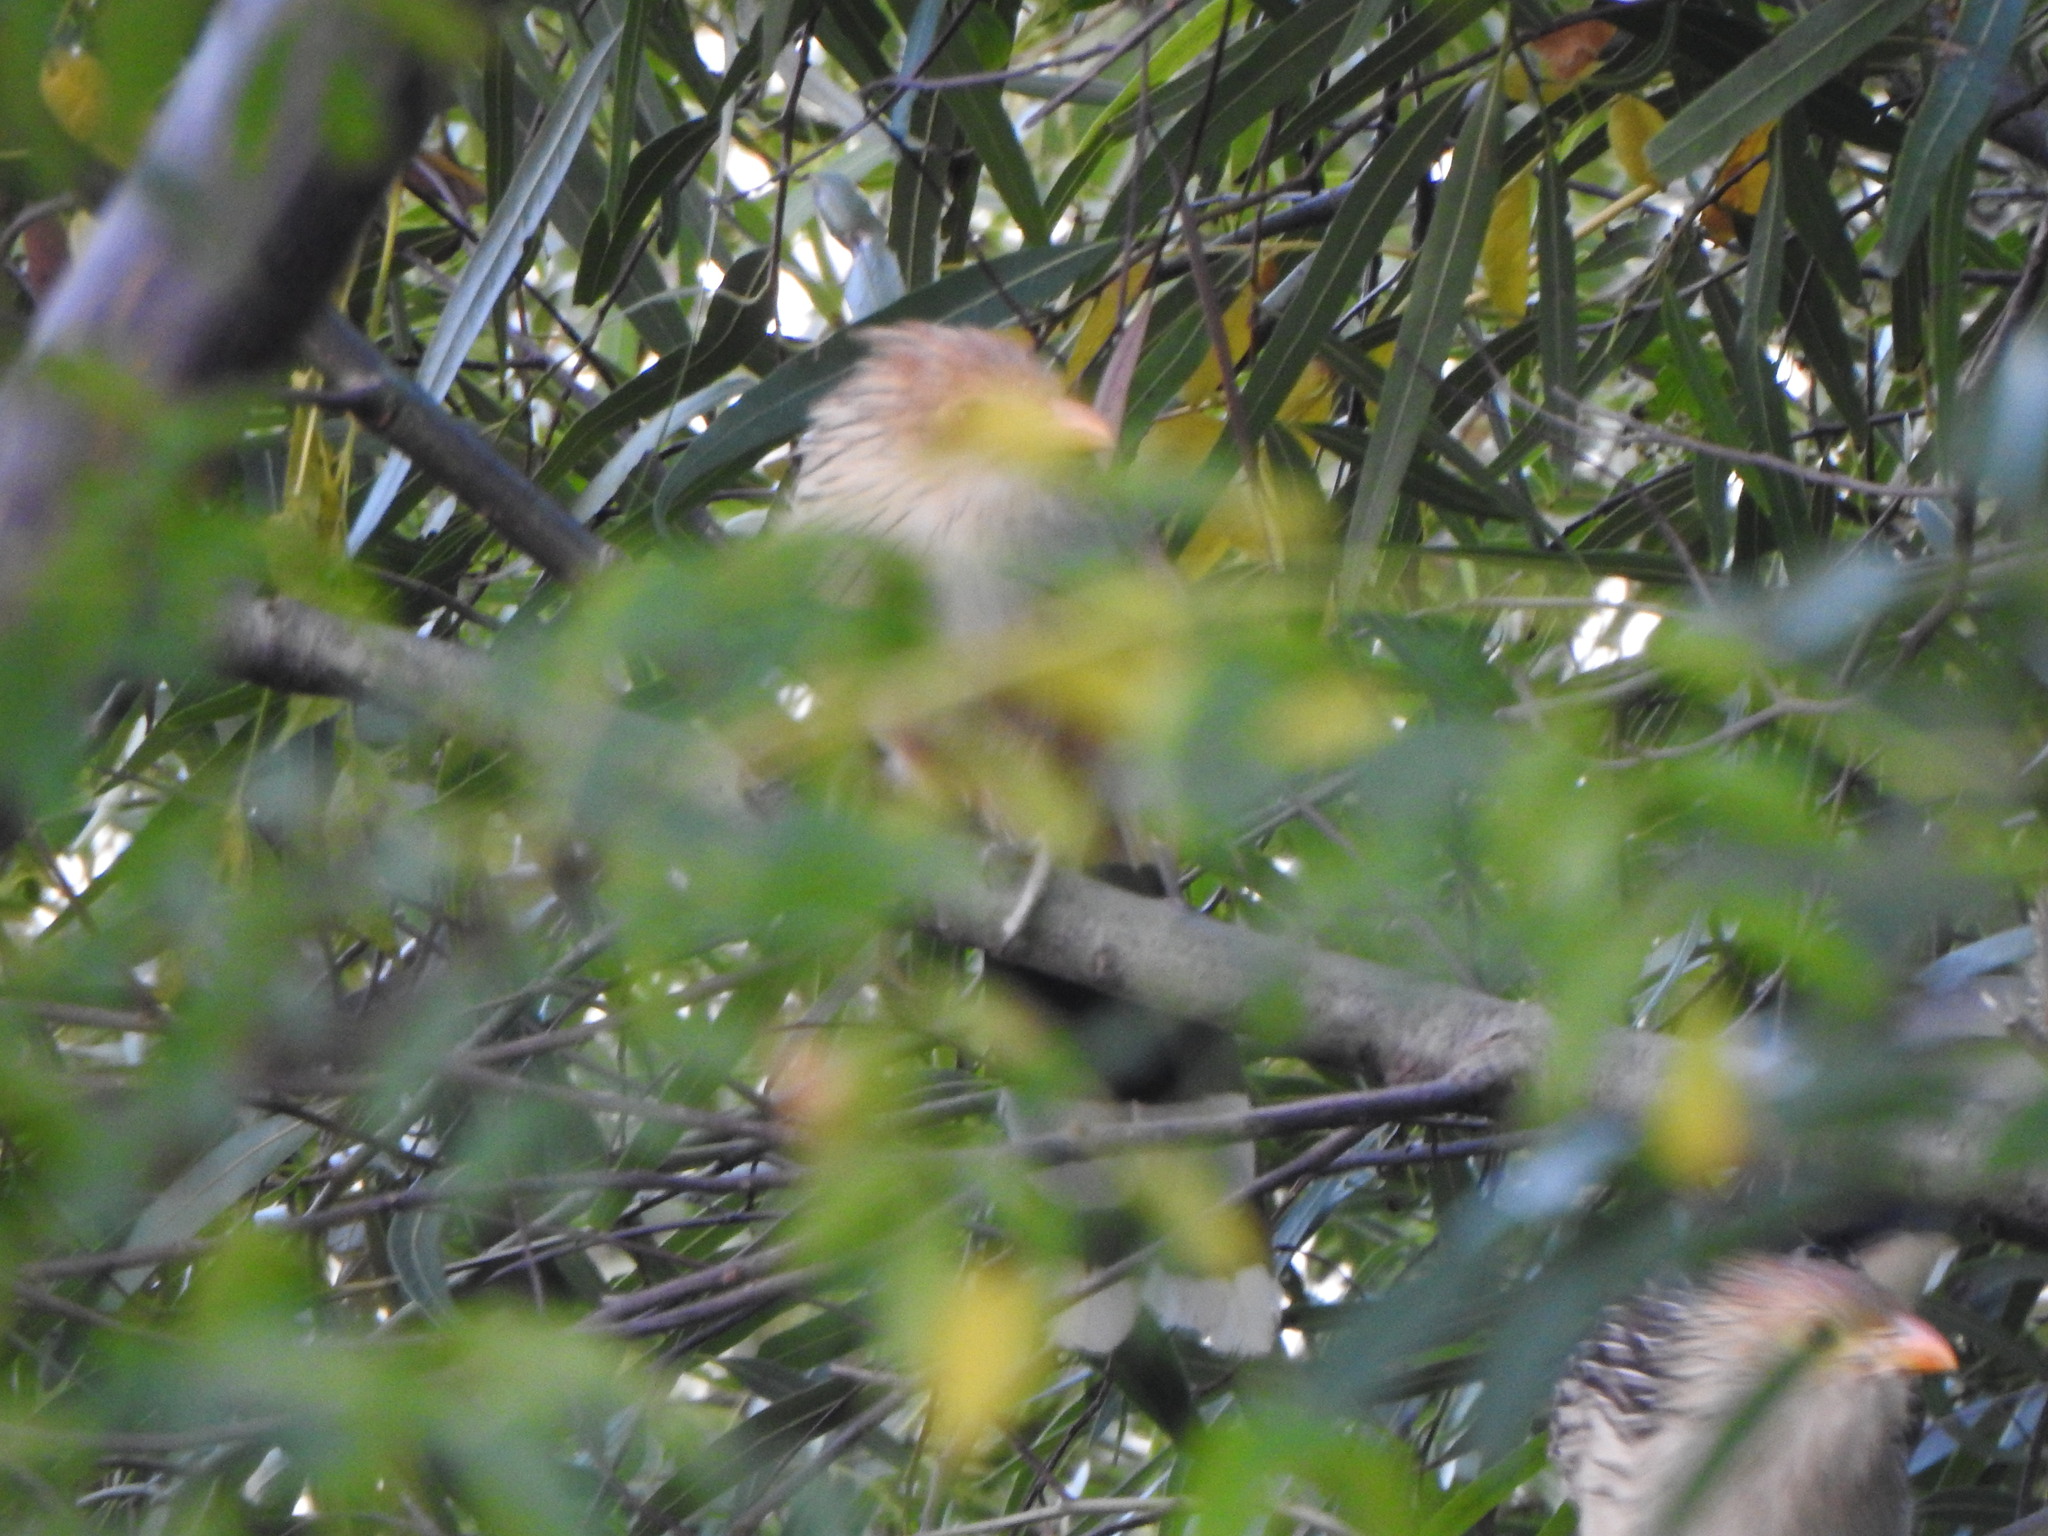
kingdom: Animalia
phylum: Chordata
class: Aves
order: Cuculiformes
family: Cuculidae
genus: Guira
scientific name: Guira guira
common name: Guira cuckoo
